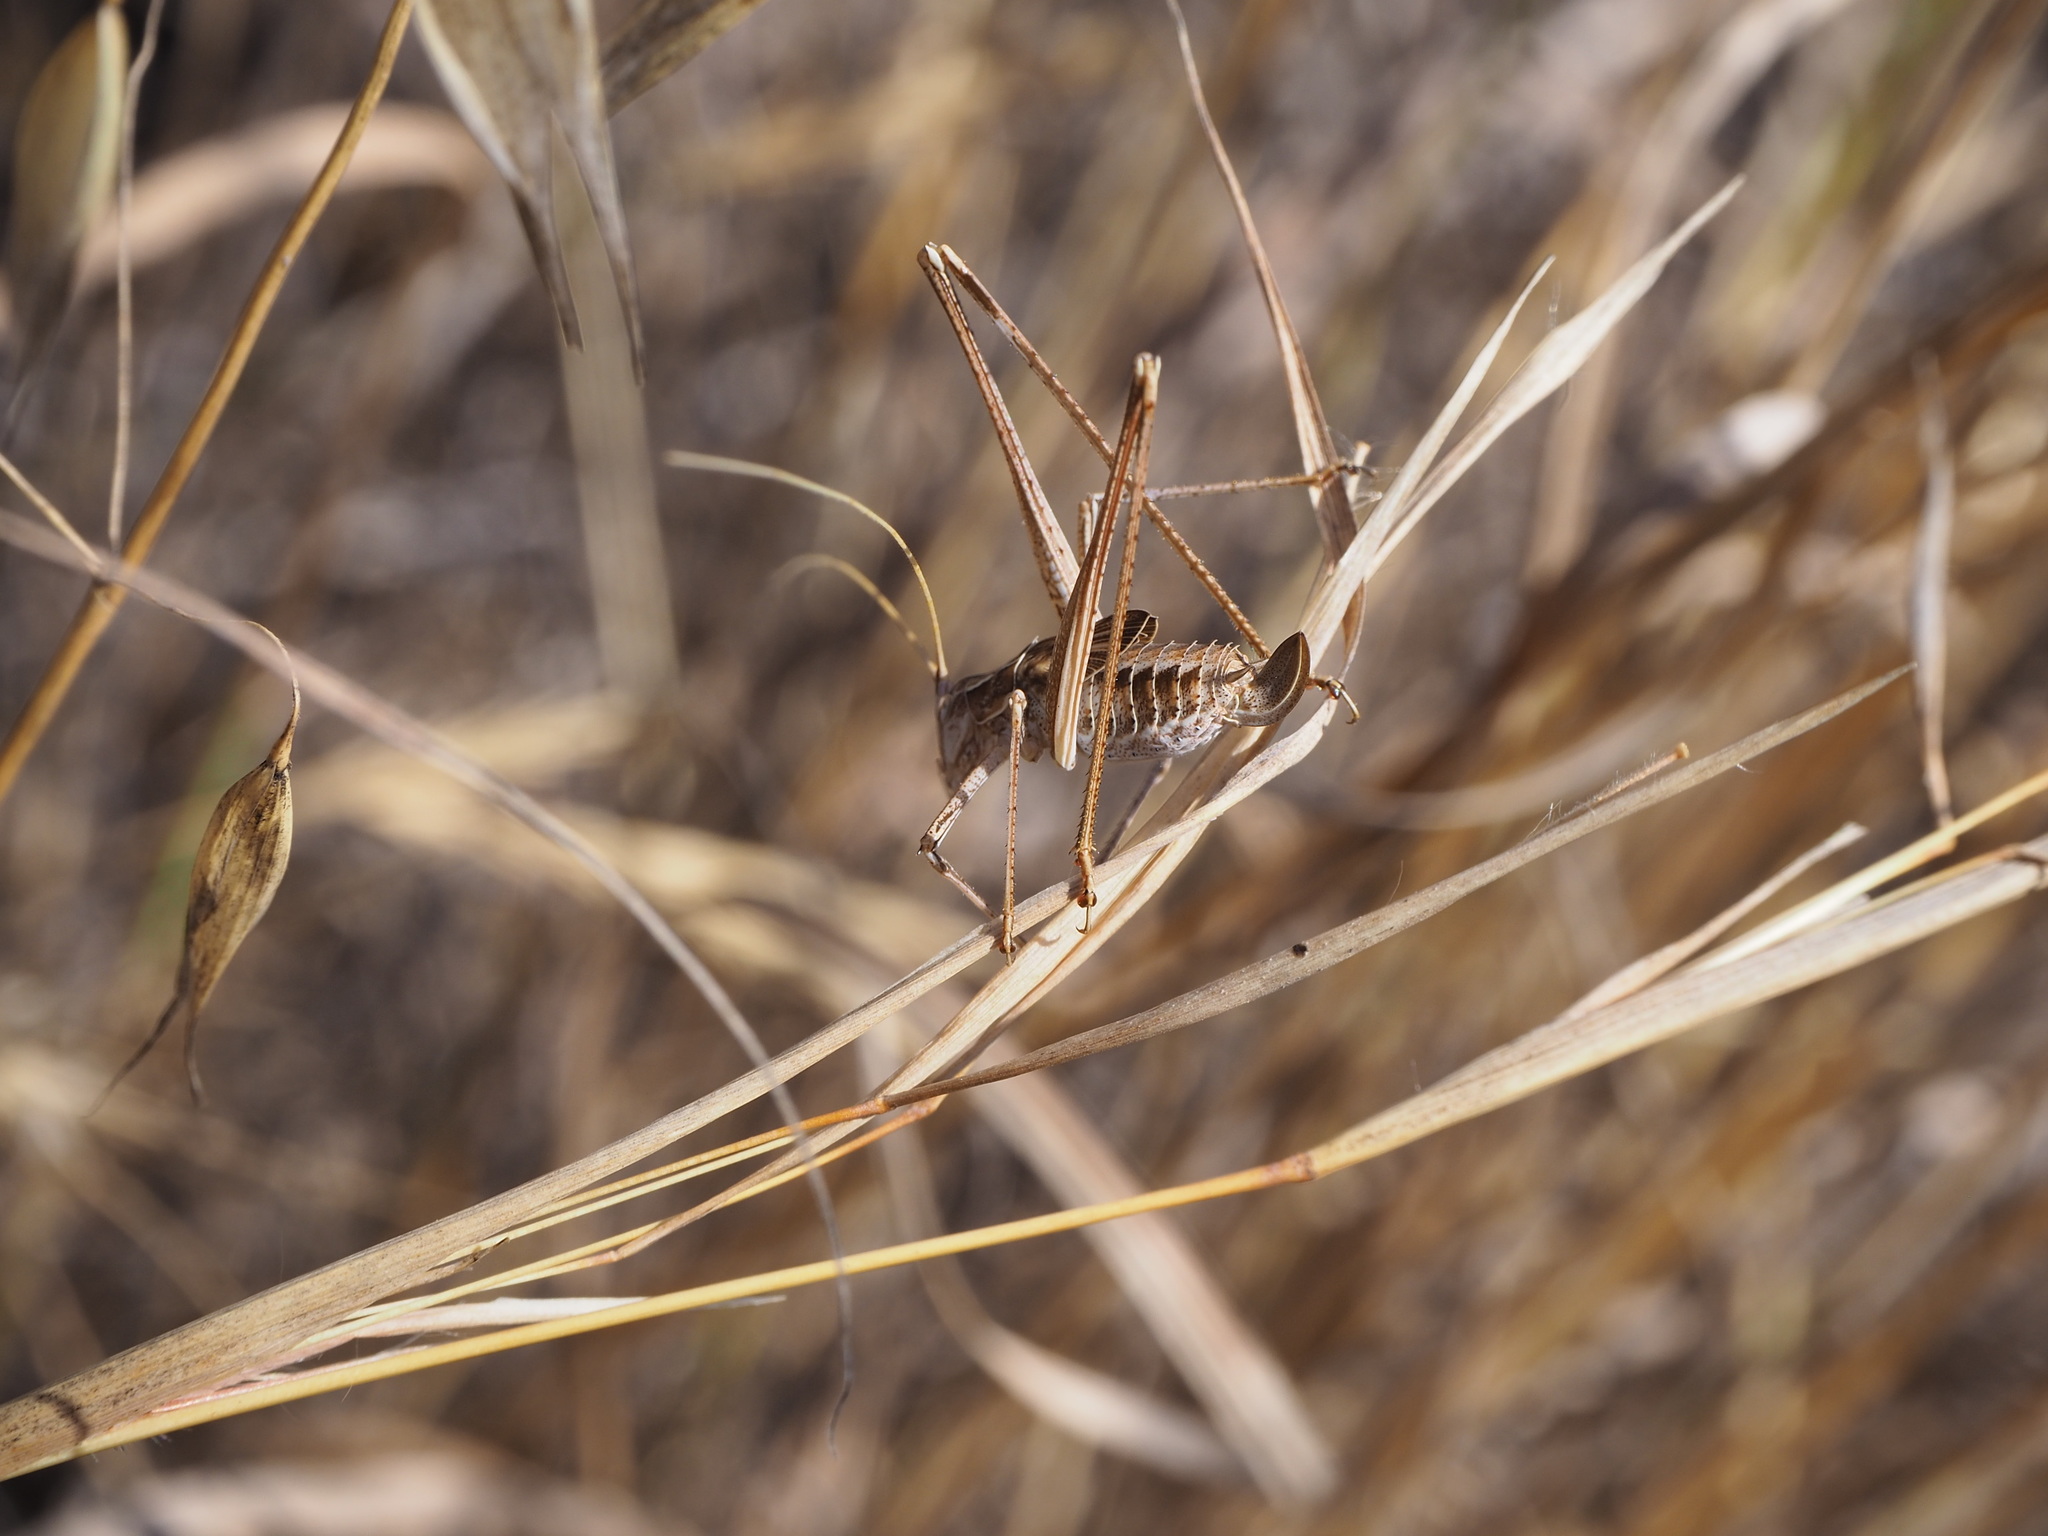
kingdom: Animalia
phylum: Arthropoda
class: Insecta
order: Orthoptera
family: Tettigoniidae
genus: Tylopsis
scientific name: Tylopsis lilifolia
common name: Lily bush-cricket
